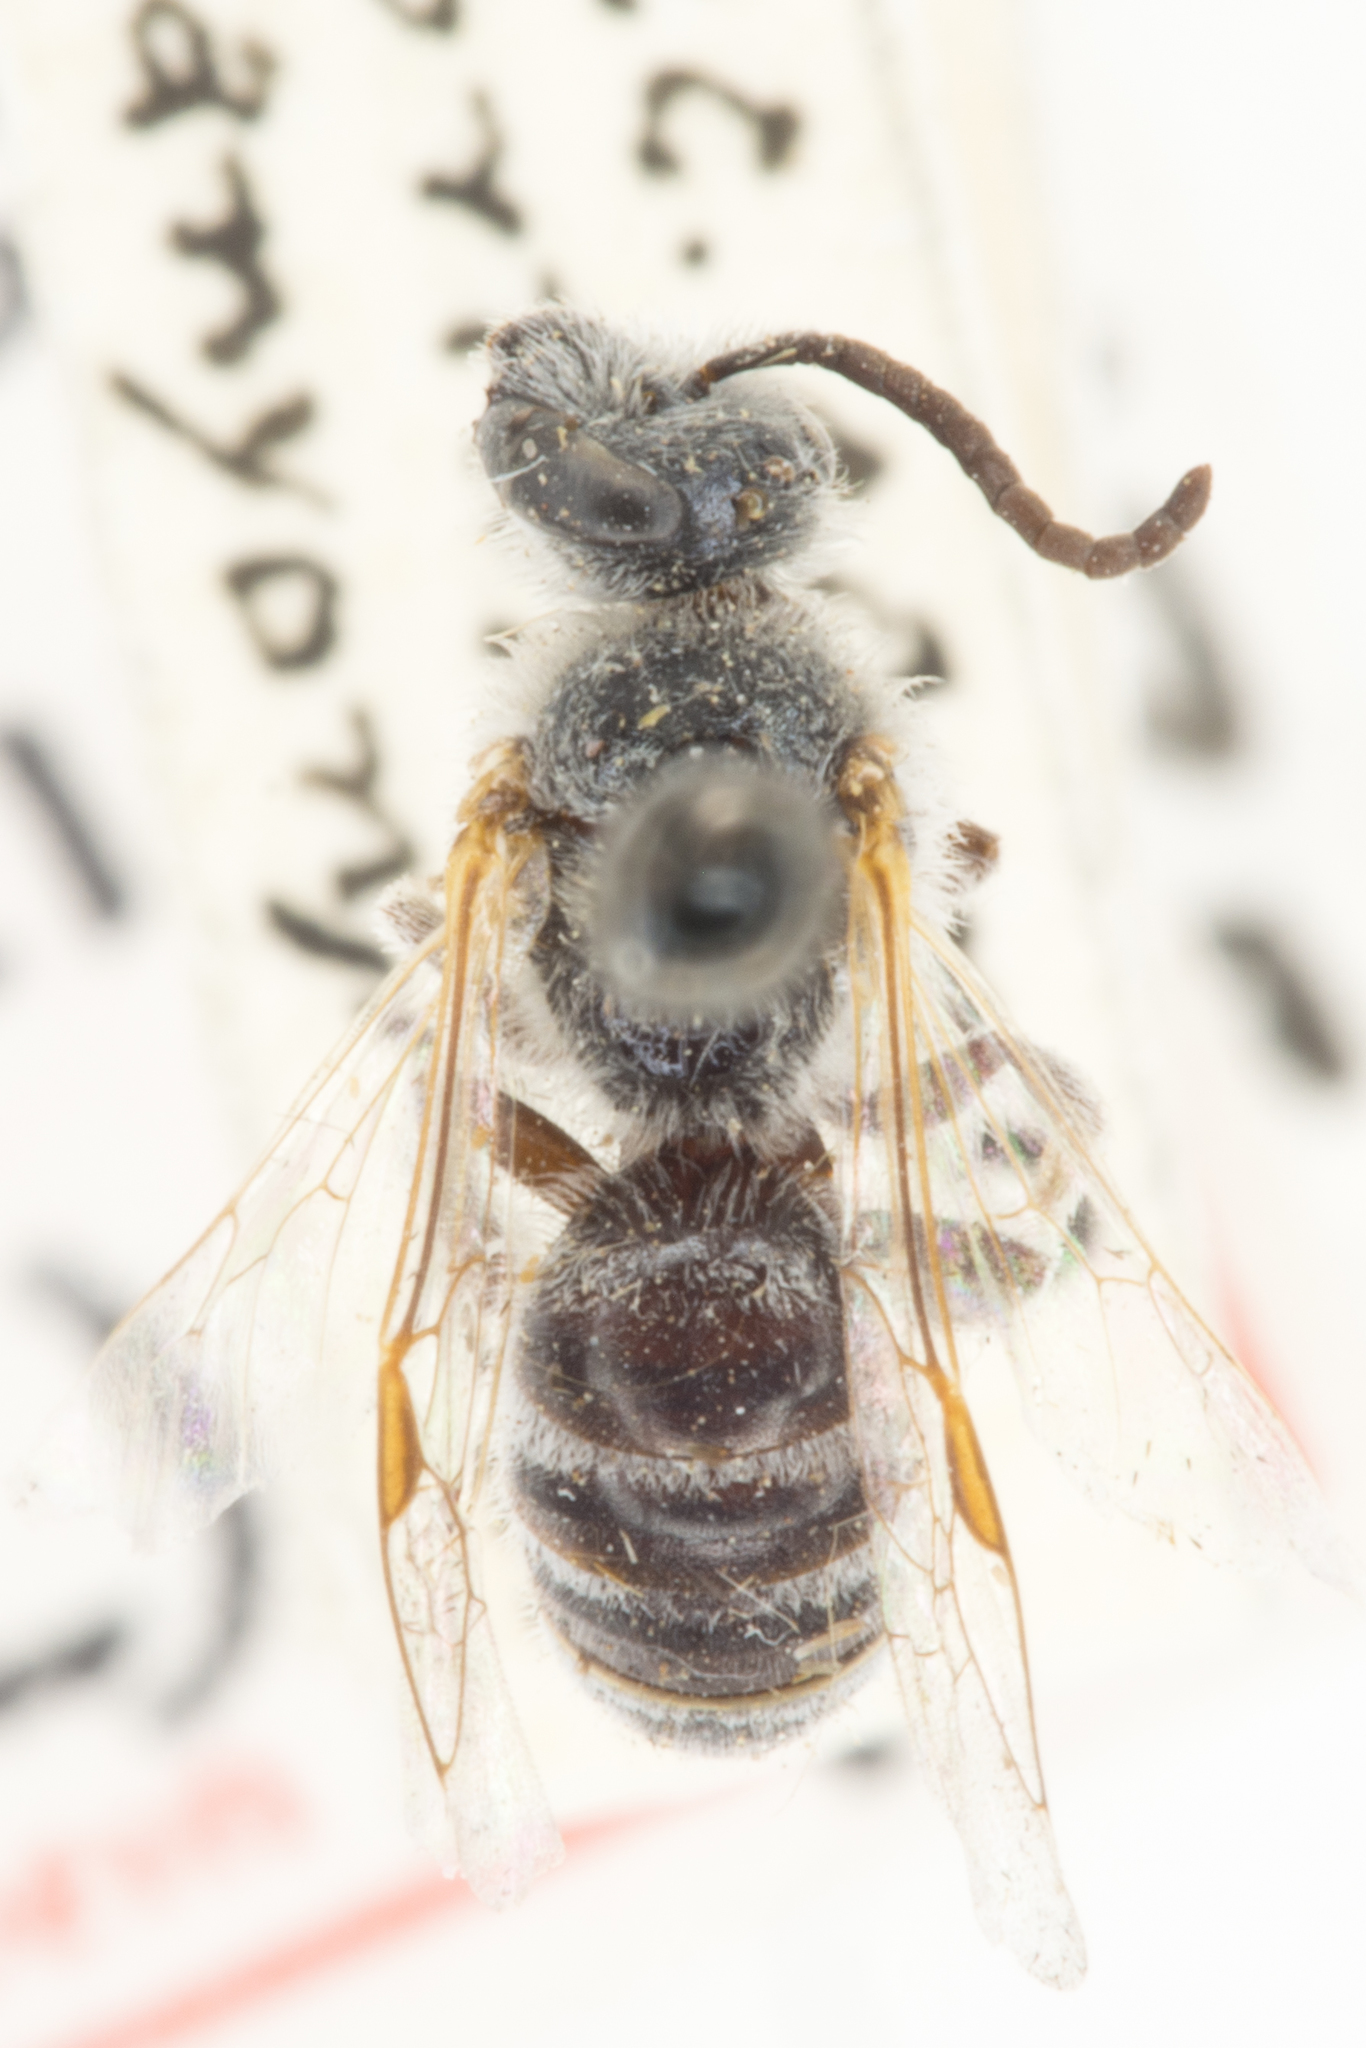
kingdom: Animalia
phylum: Arthropoda
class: Insecta
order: Hymenoptera
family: Halictidae
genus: Lasioglossum
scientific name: Lasioglossum sisymbrii
